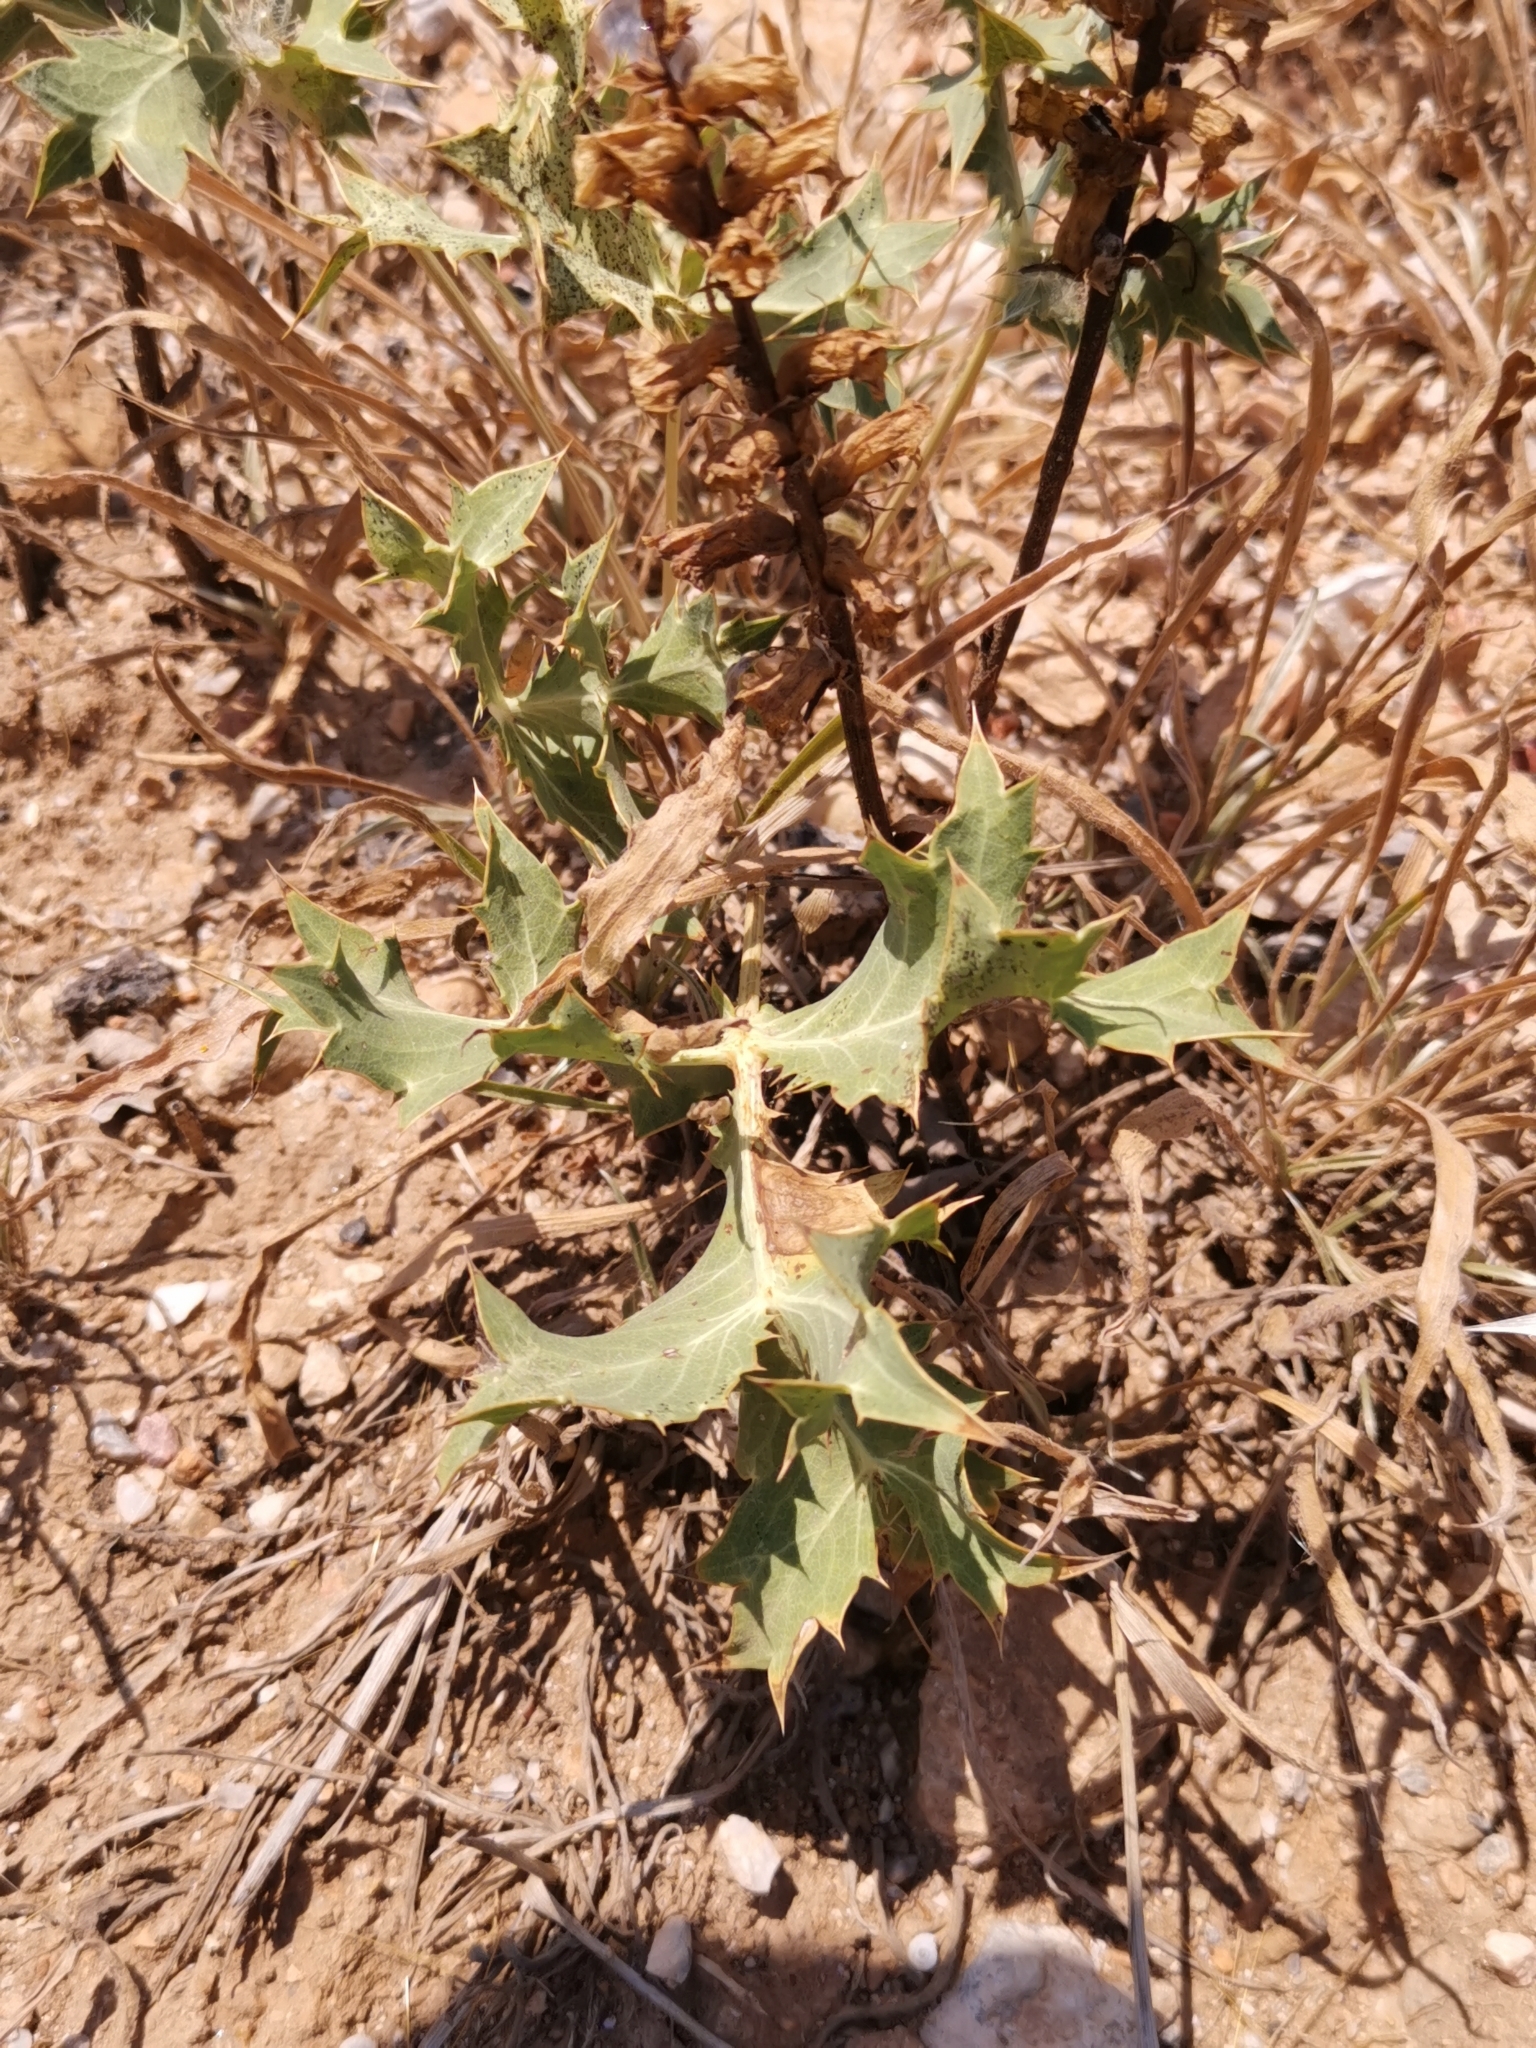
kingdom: Plantae
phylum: Tracheophyta
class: Magnoliopsida
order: Apiales
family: Apiaceae
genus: Eryngium
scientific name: Eryngium campestre
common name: Field eryngo
